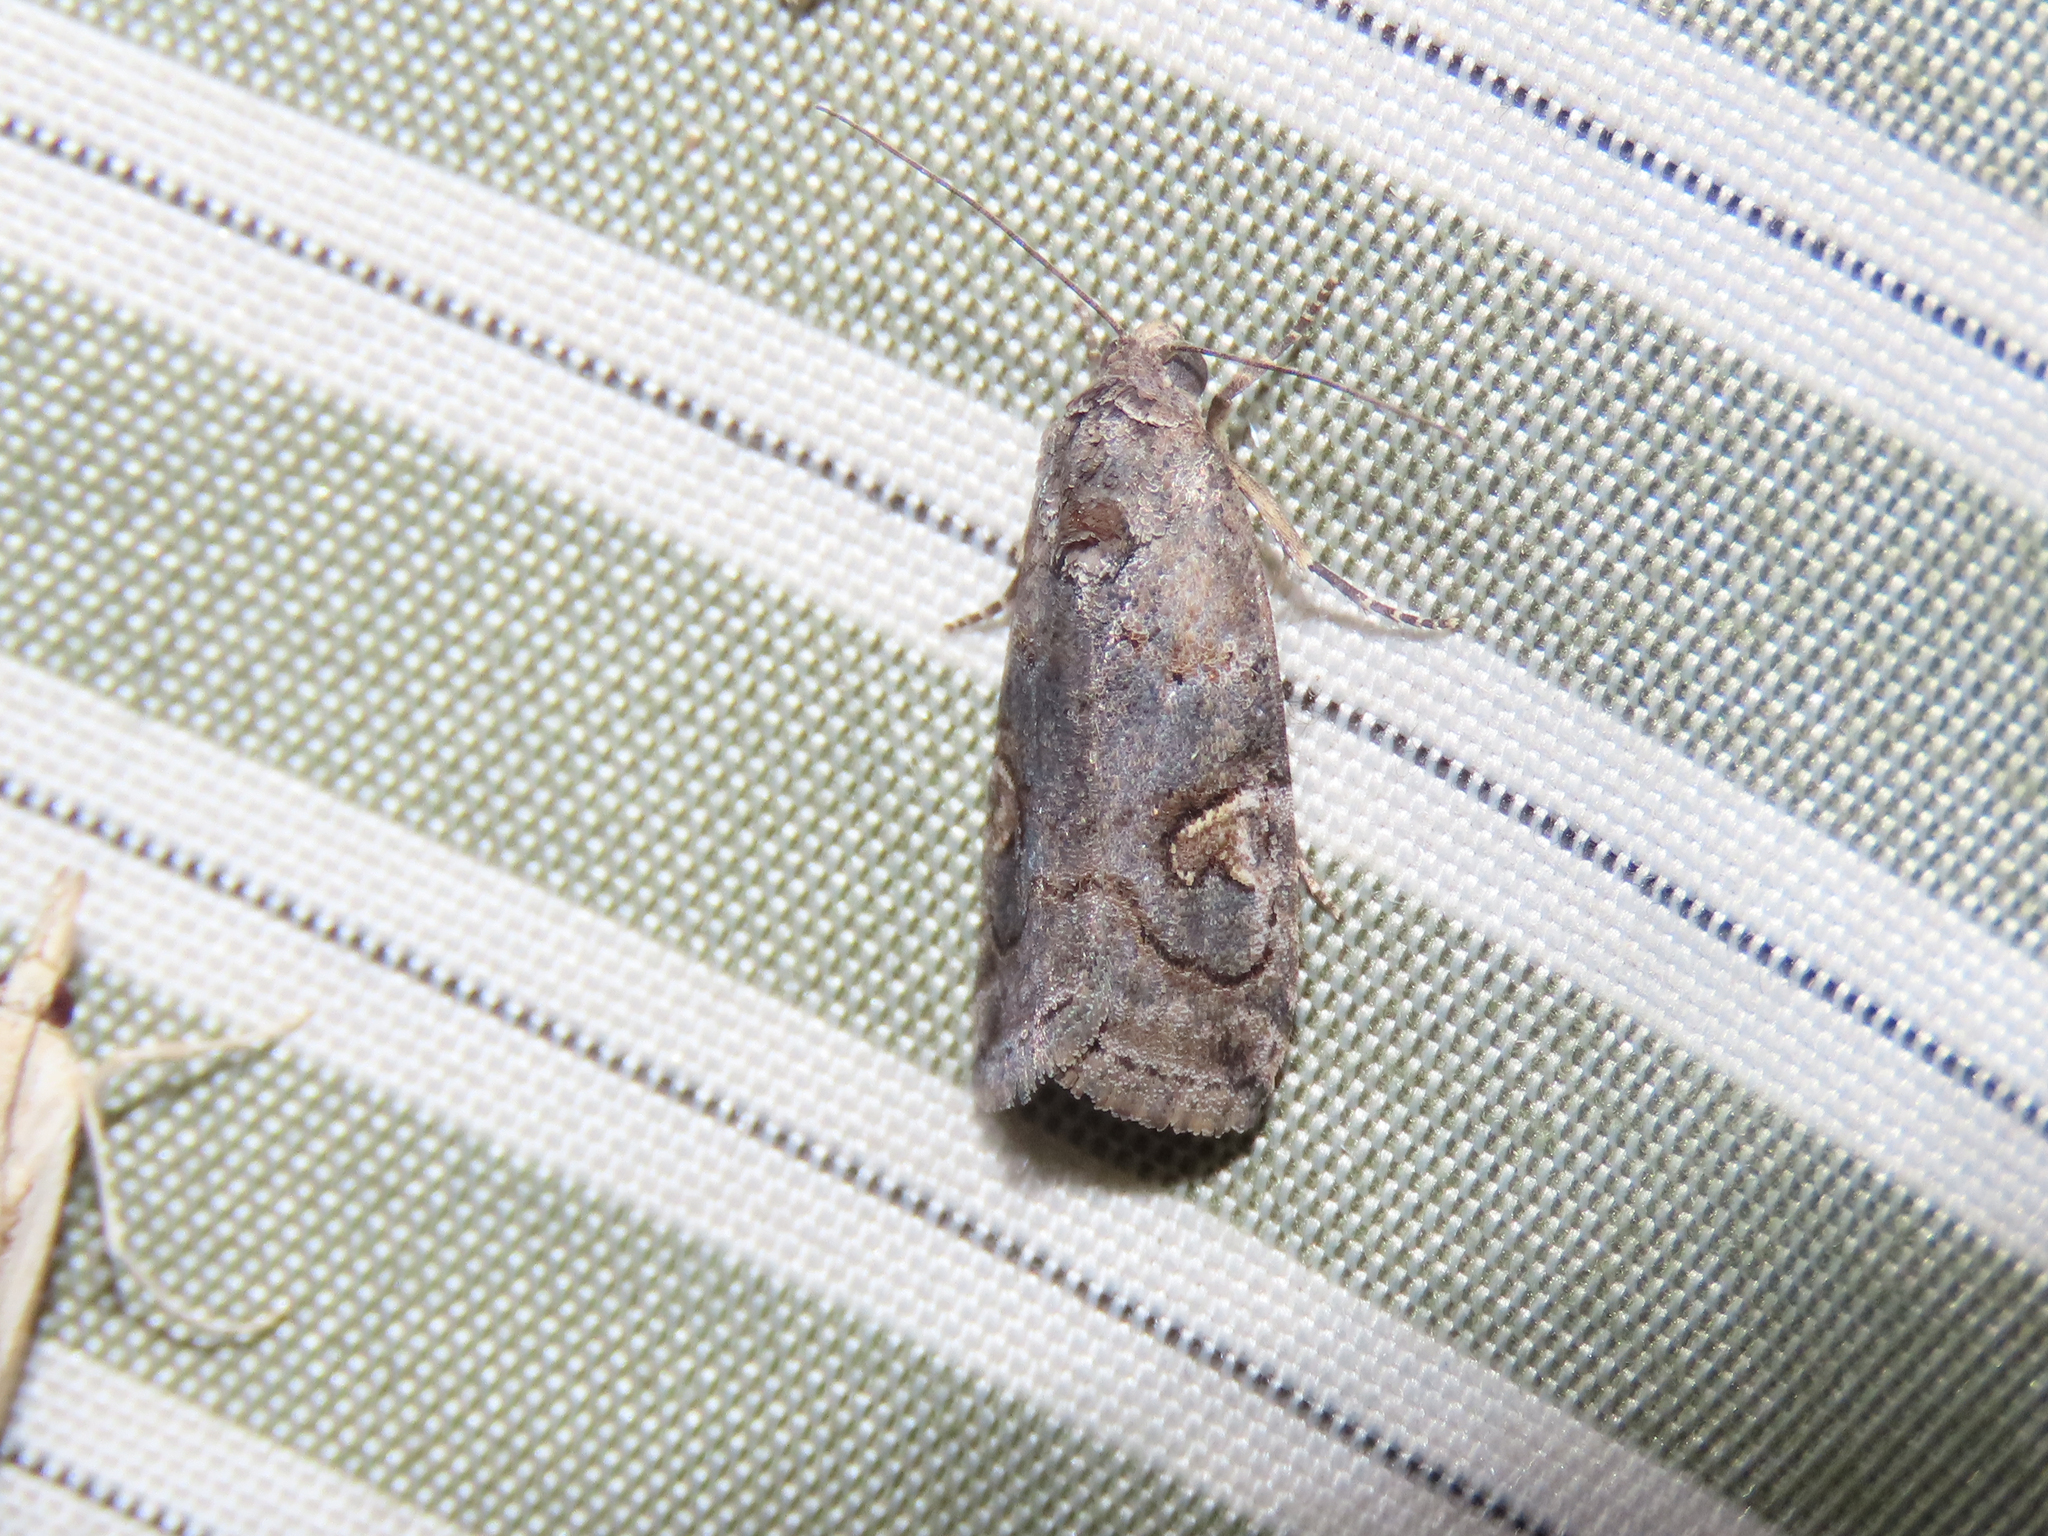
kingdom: Animalia
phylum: Arthropoda
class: Insecta
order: Lepidoptera
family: Noctuidae
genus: Metaponpneumata
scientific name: Metaponpneumata rogenhoferi
